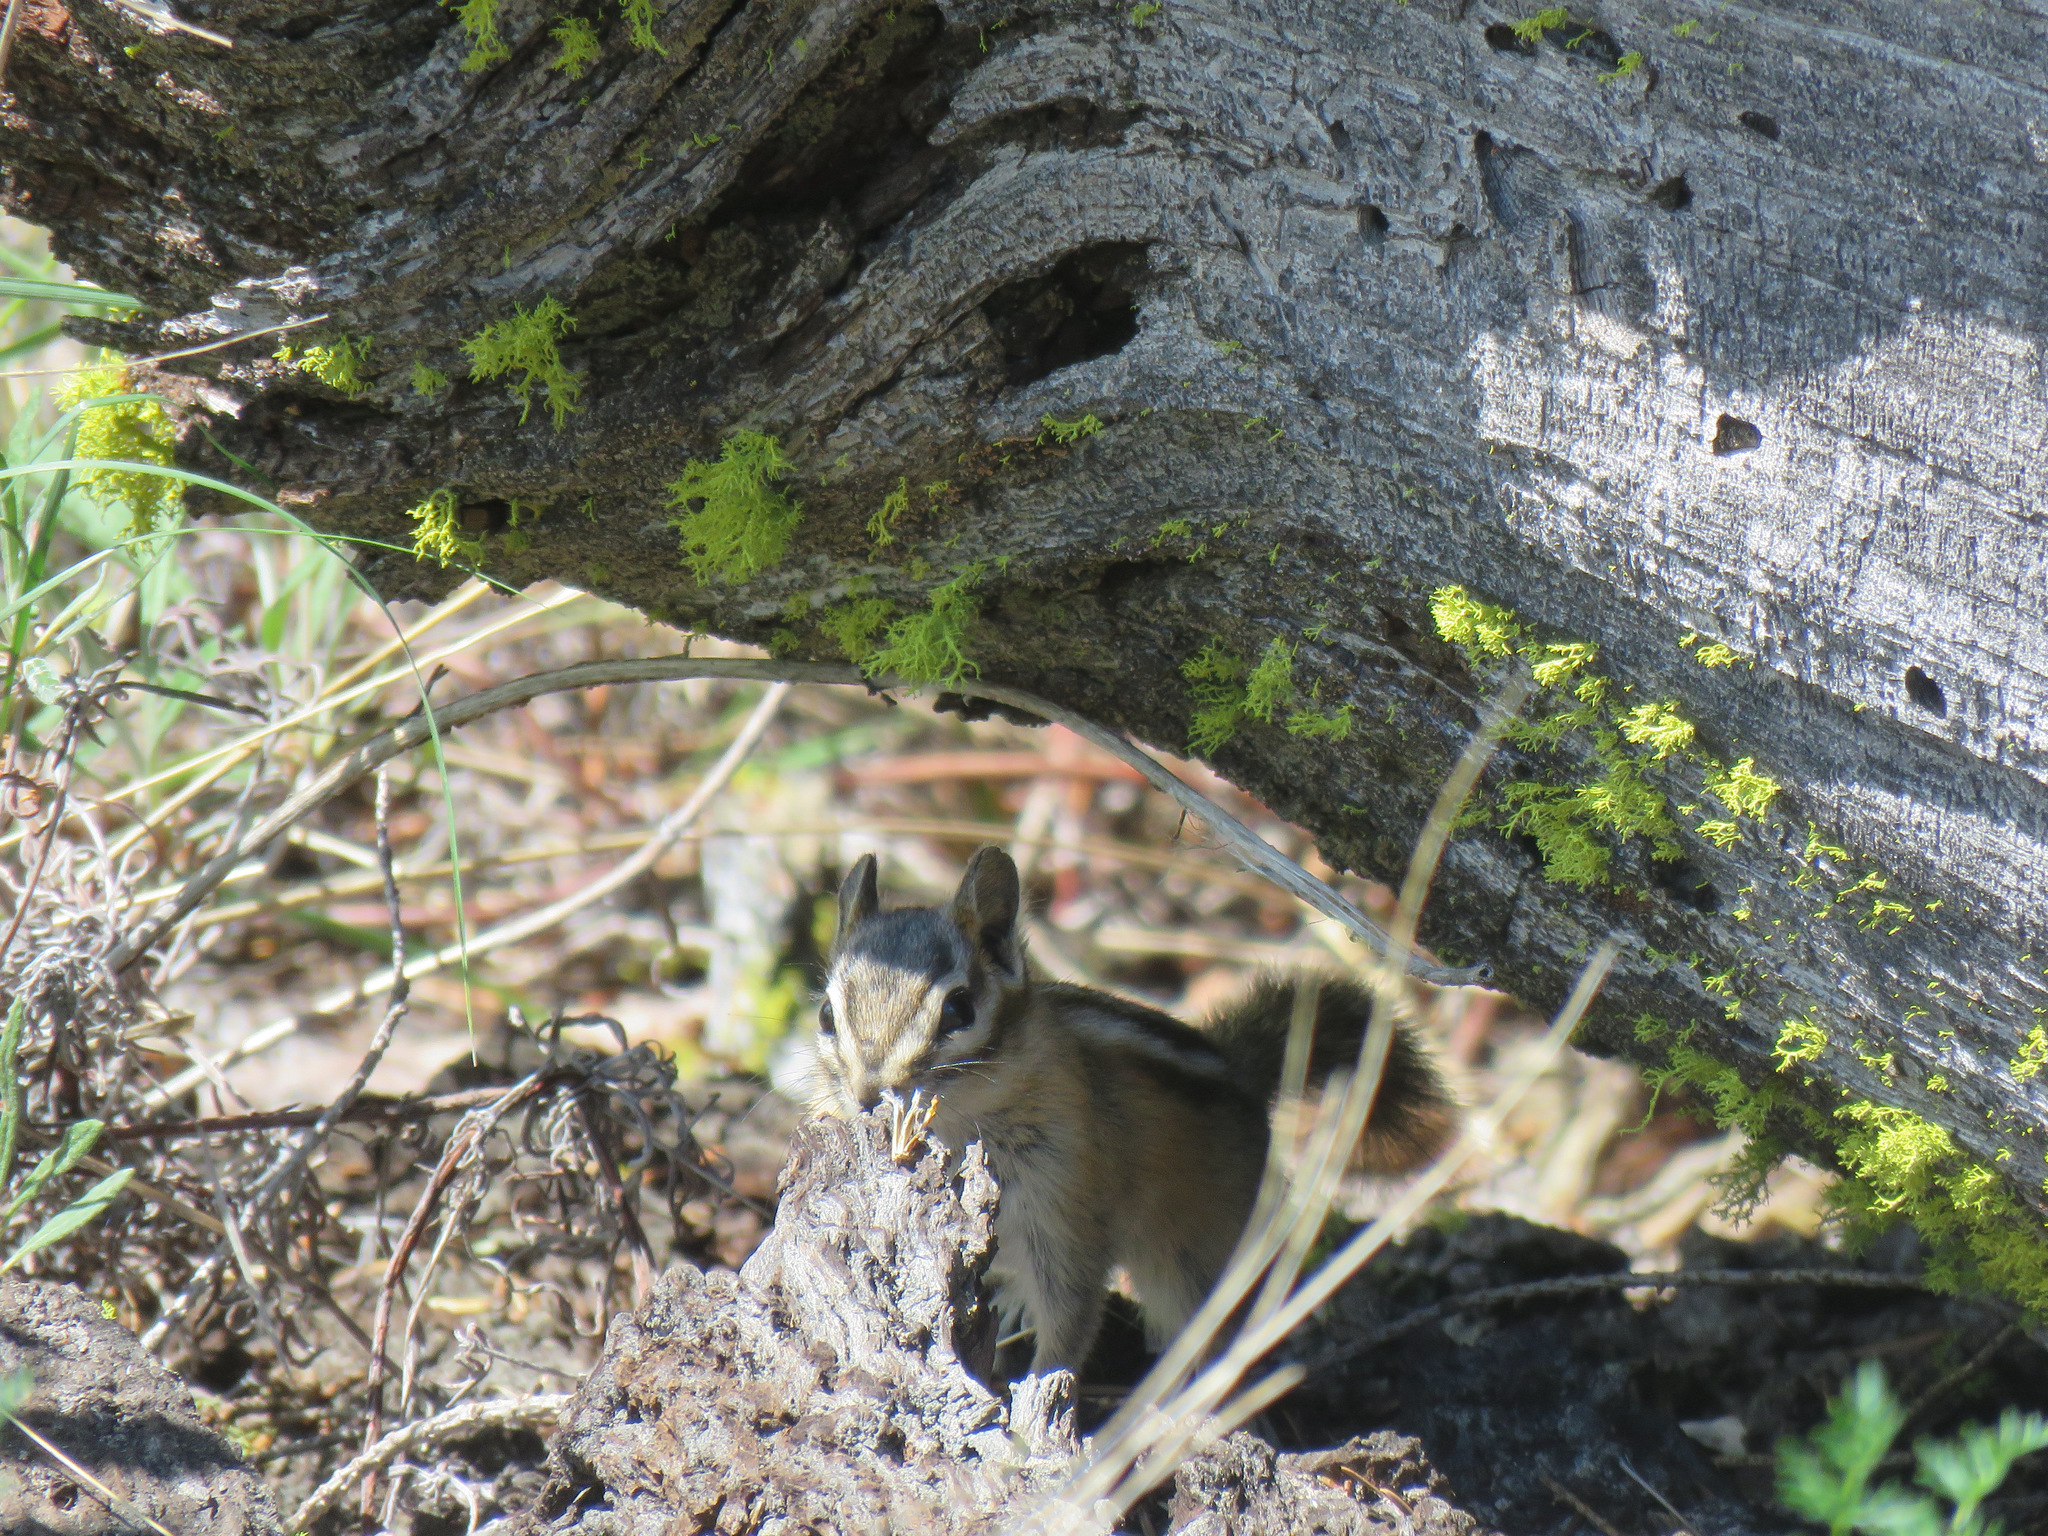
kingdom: Animalia
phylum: Chordata
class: Mammalia
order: Rodentia
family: Sciuridae
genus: Tamias
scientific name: Tamias amoenus
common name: Yellow-pine chipmunk
